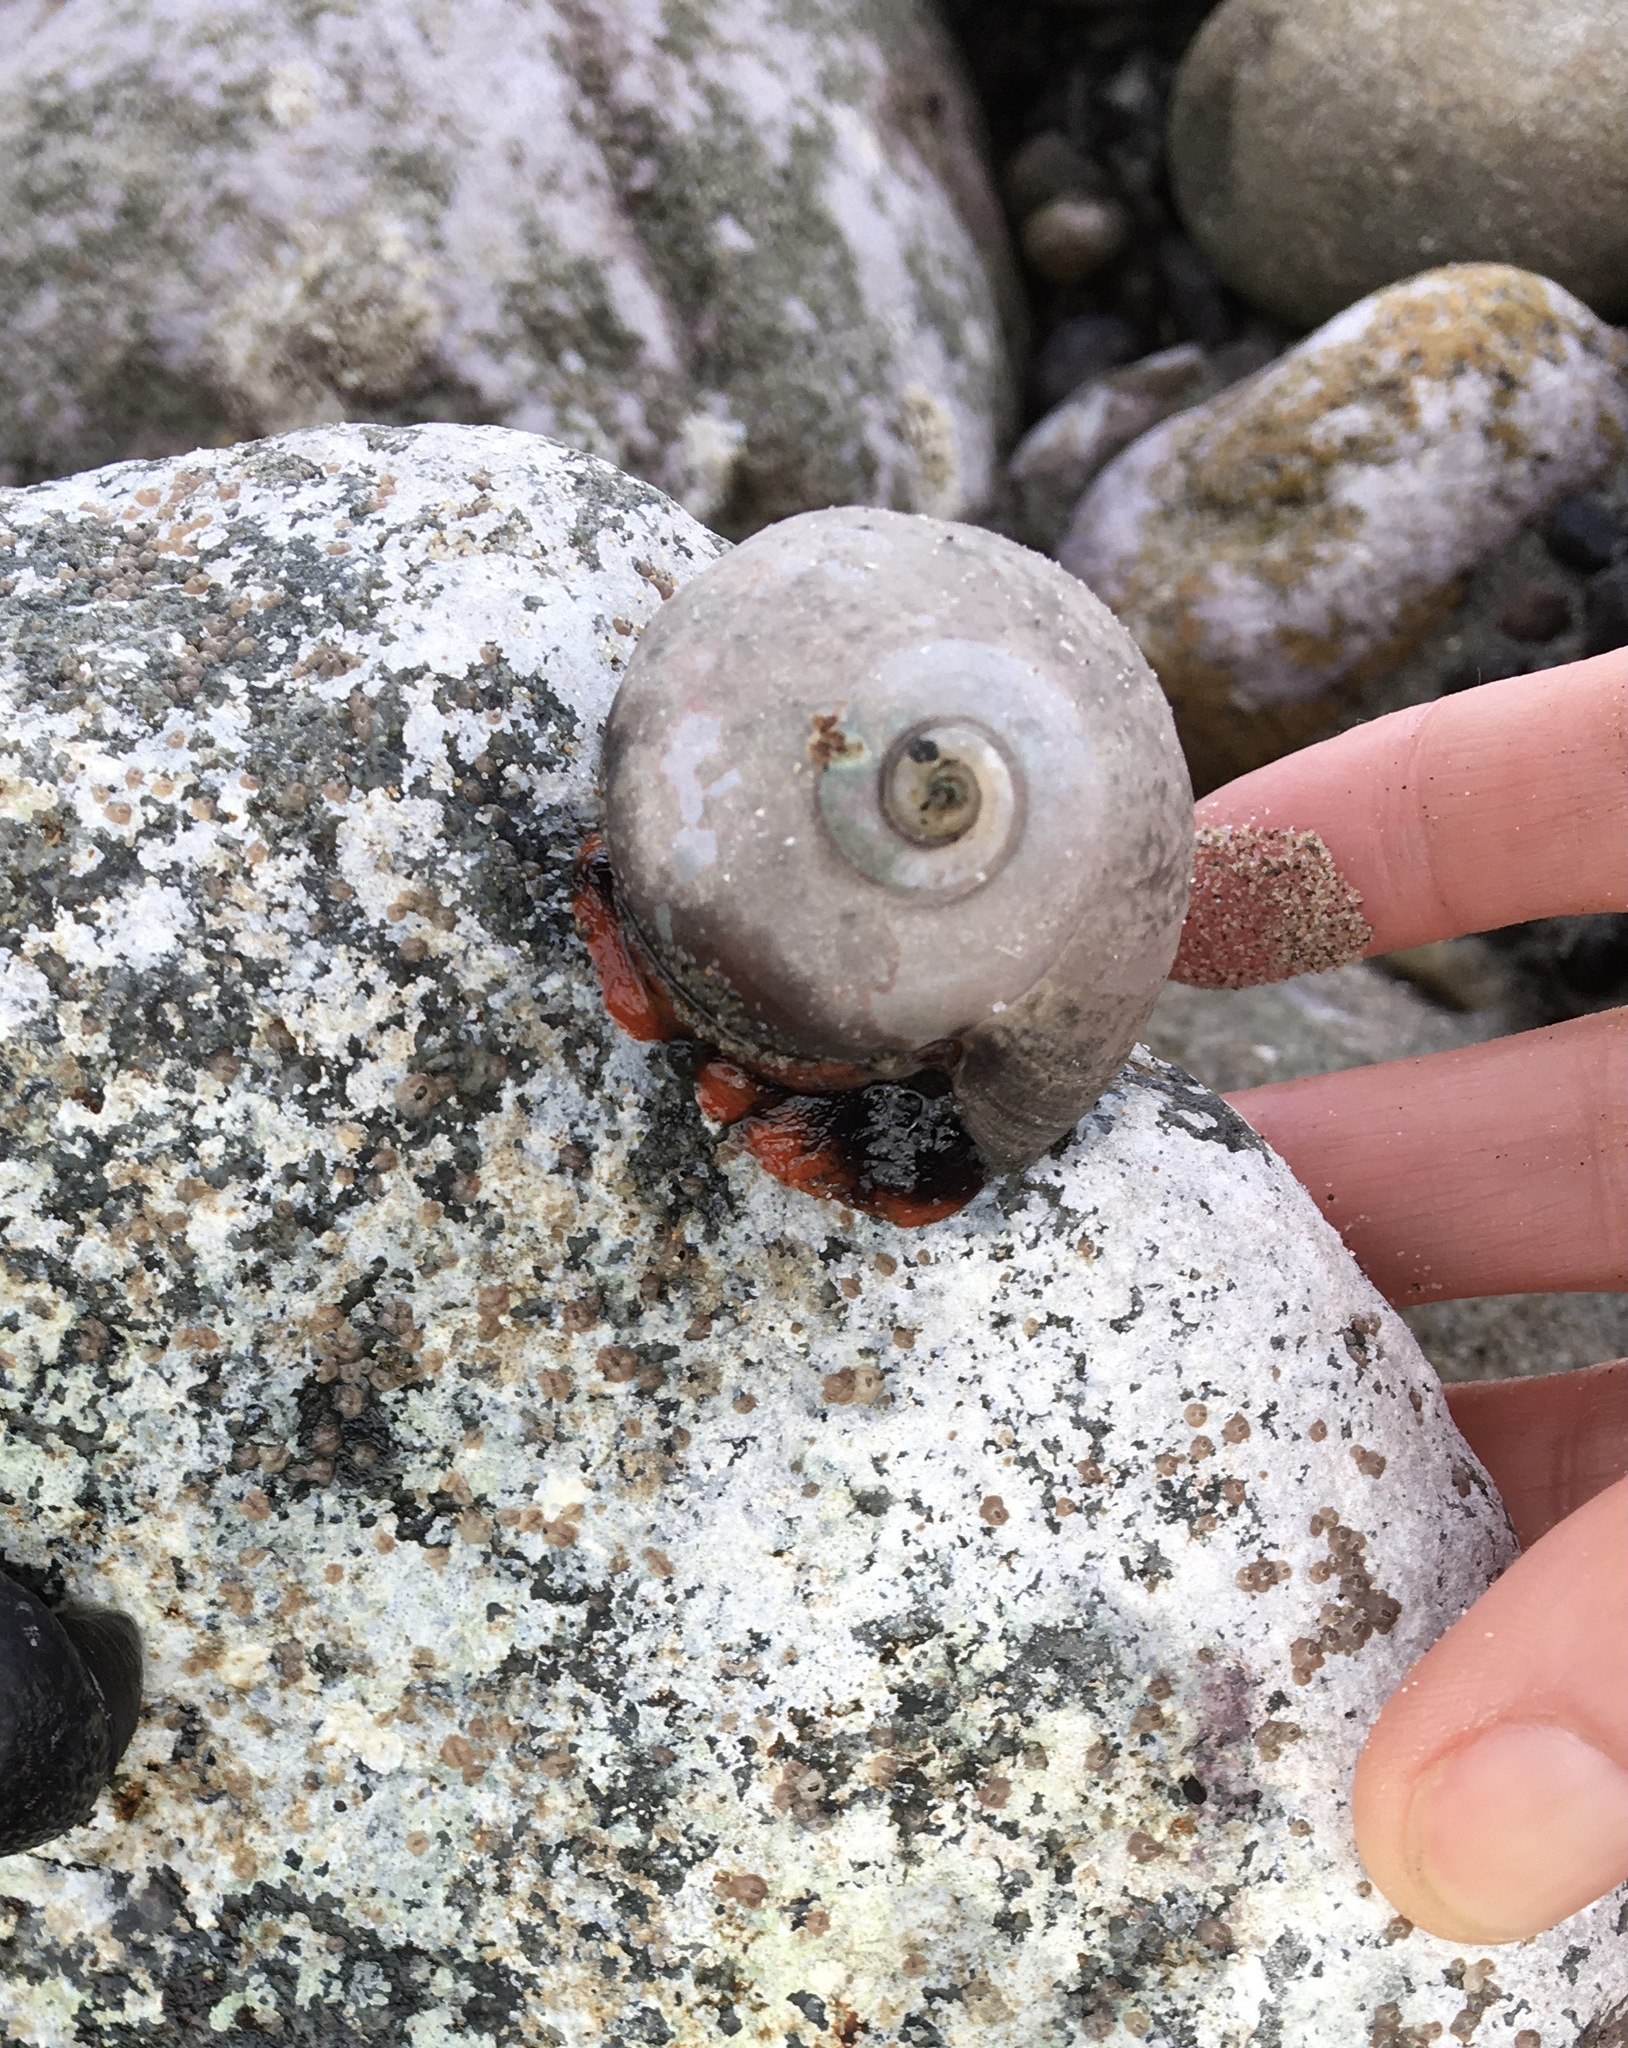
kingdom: Animalia
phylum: Mollusca
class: Gastropoda
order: Trochida
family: Tegulidae
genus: Norrisia
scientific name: Norrisia norrisii
